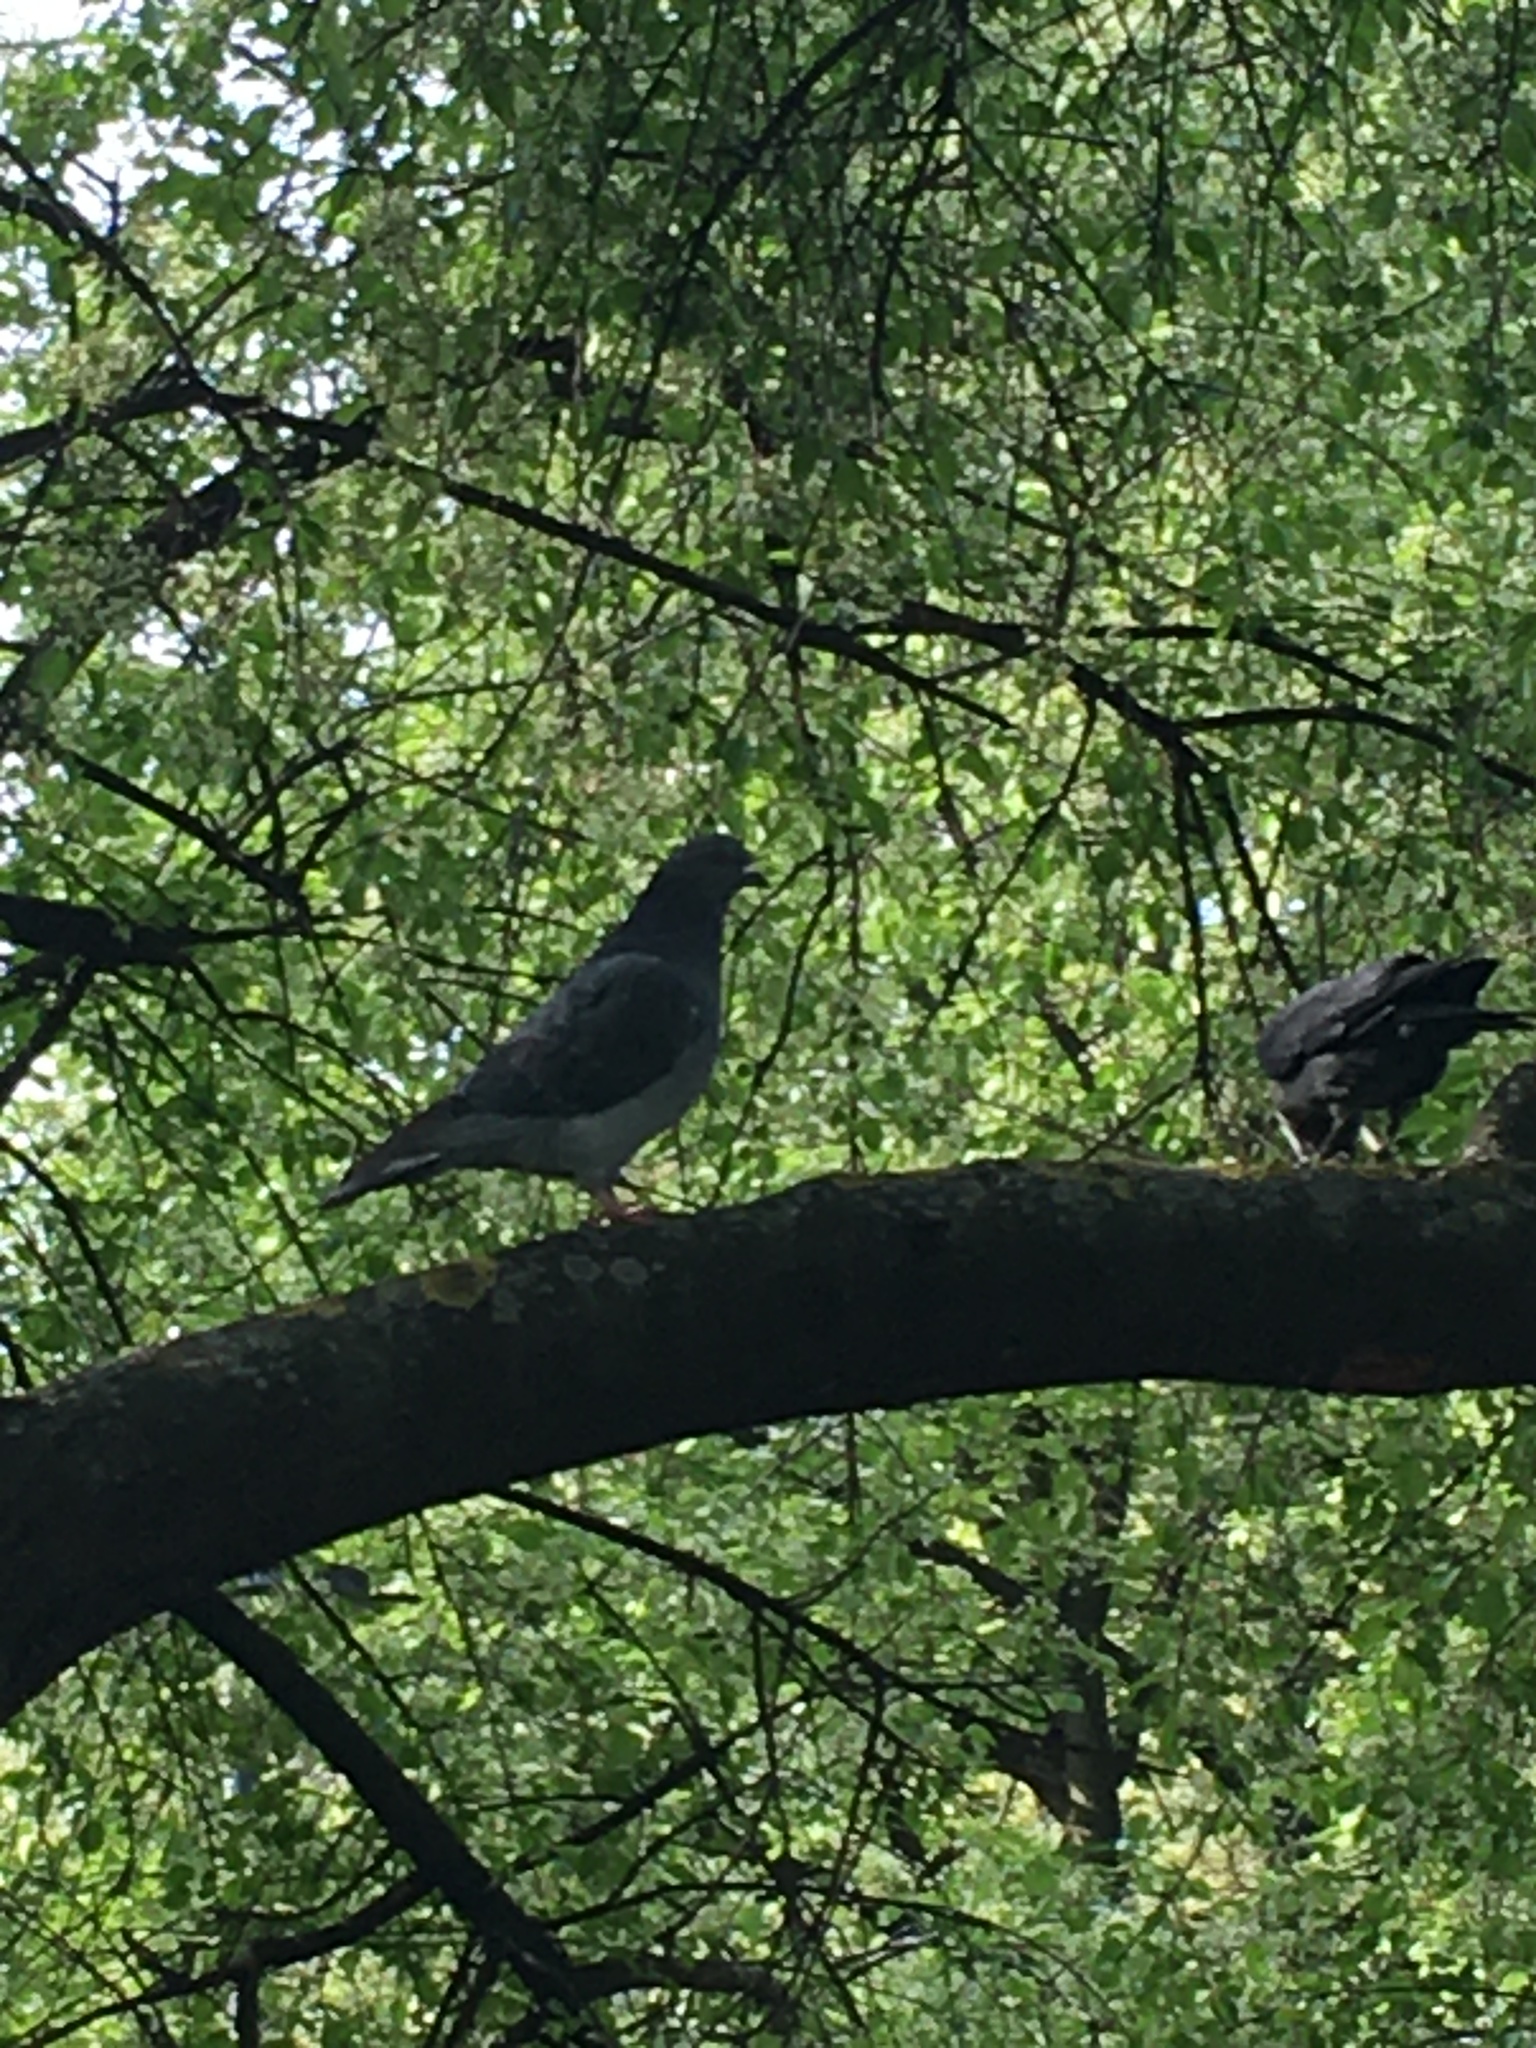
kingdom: Animalia
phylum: Chordata
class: Aves
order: Columbiformes
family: Columbidae
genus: Columba
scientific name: Columba livia
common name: Rock pigeon
